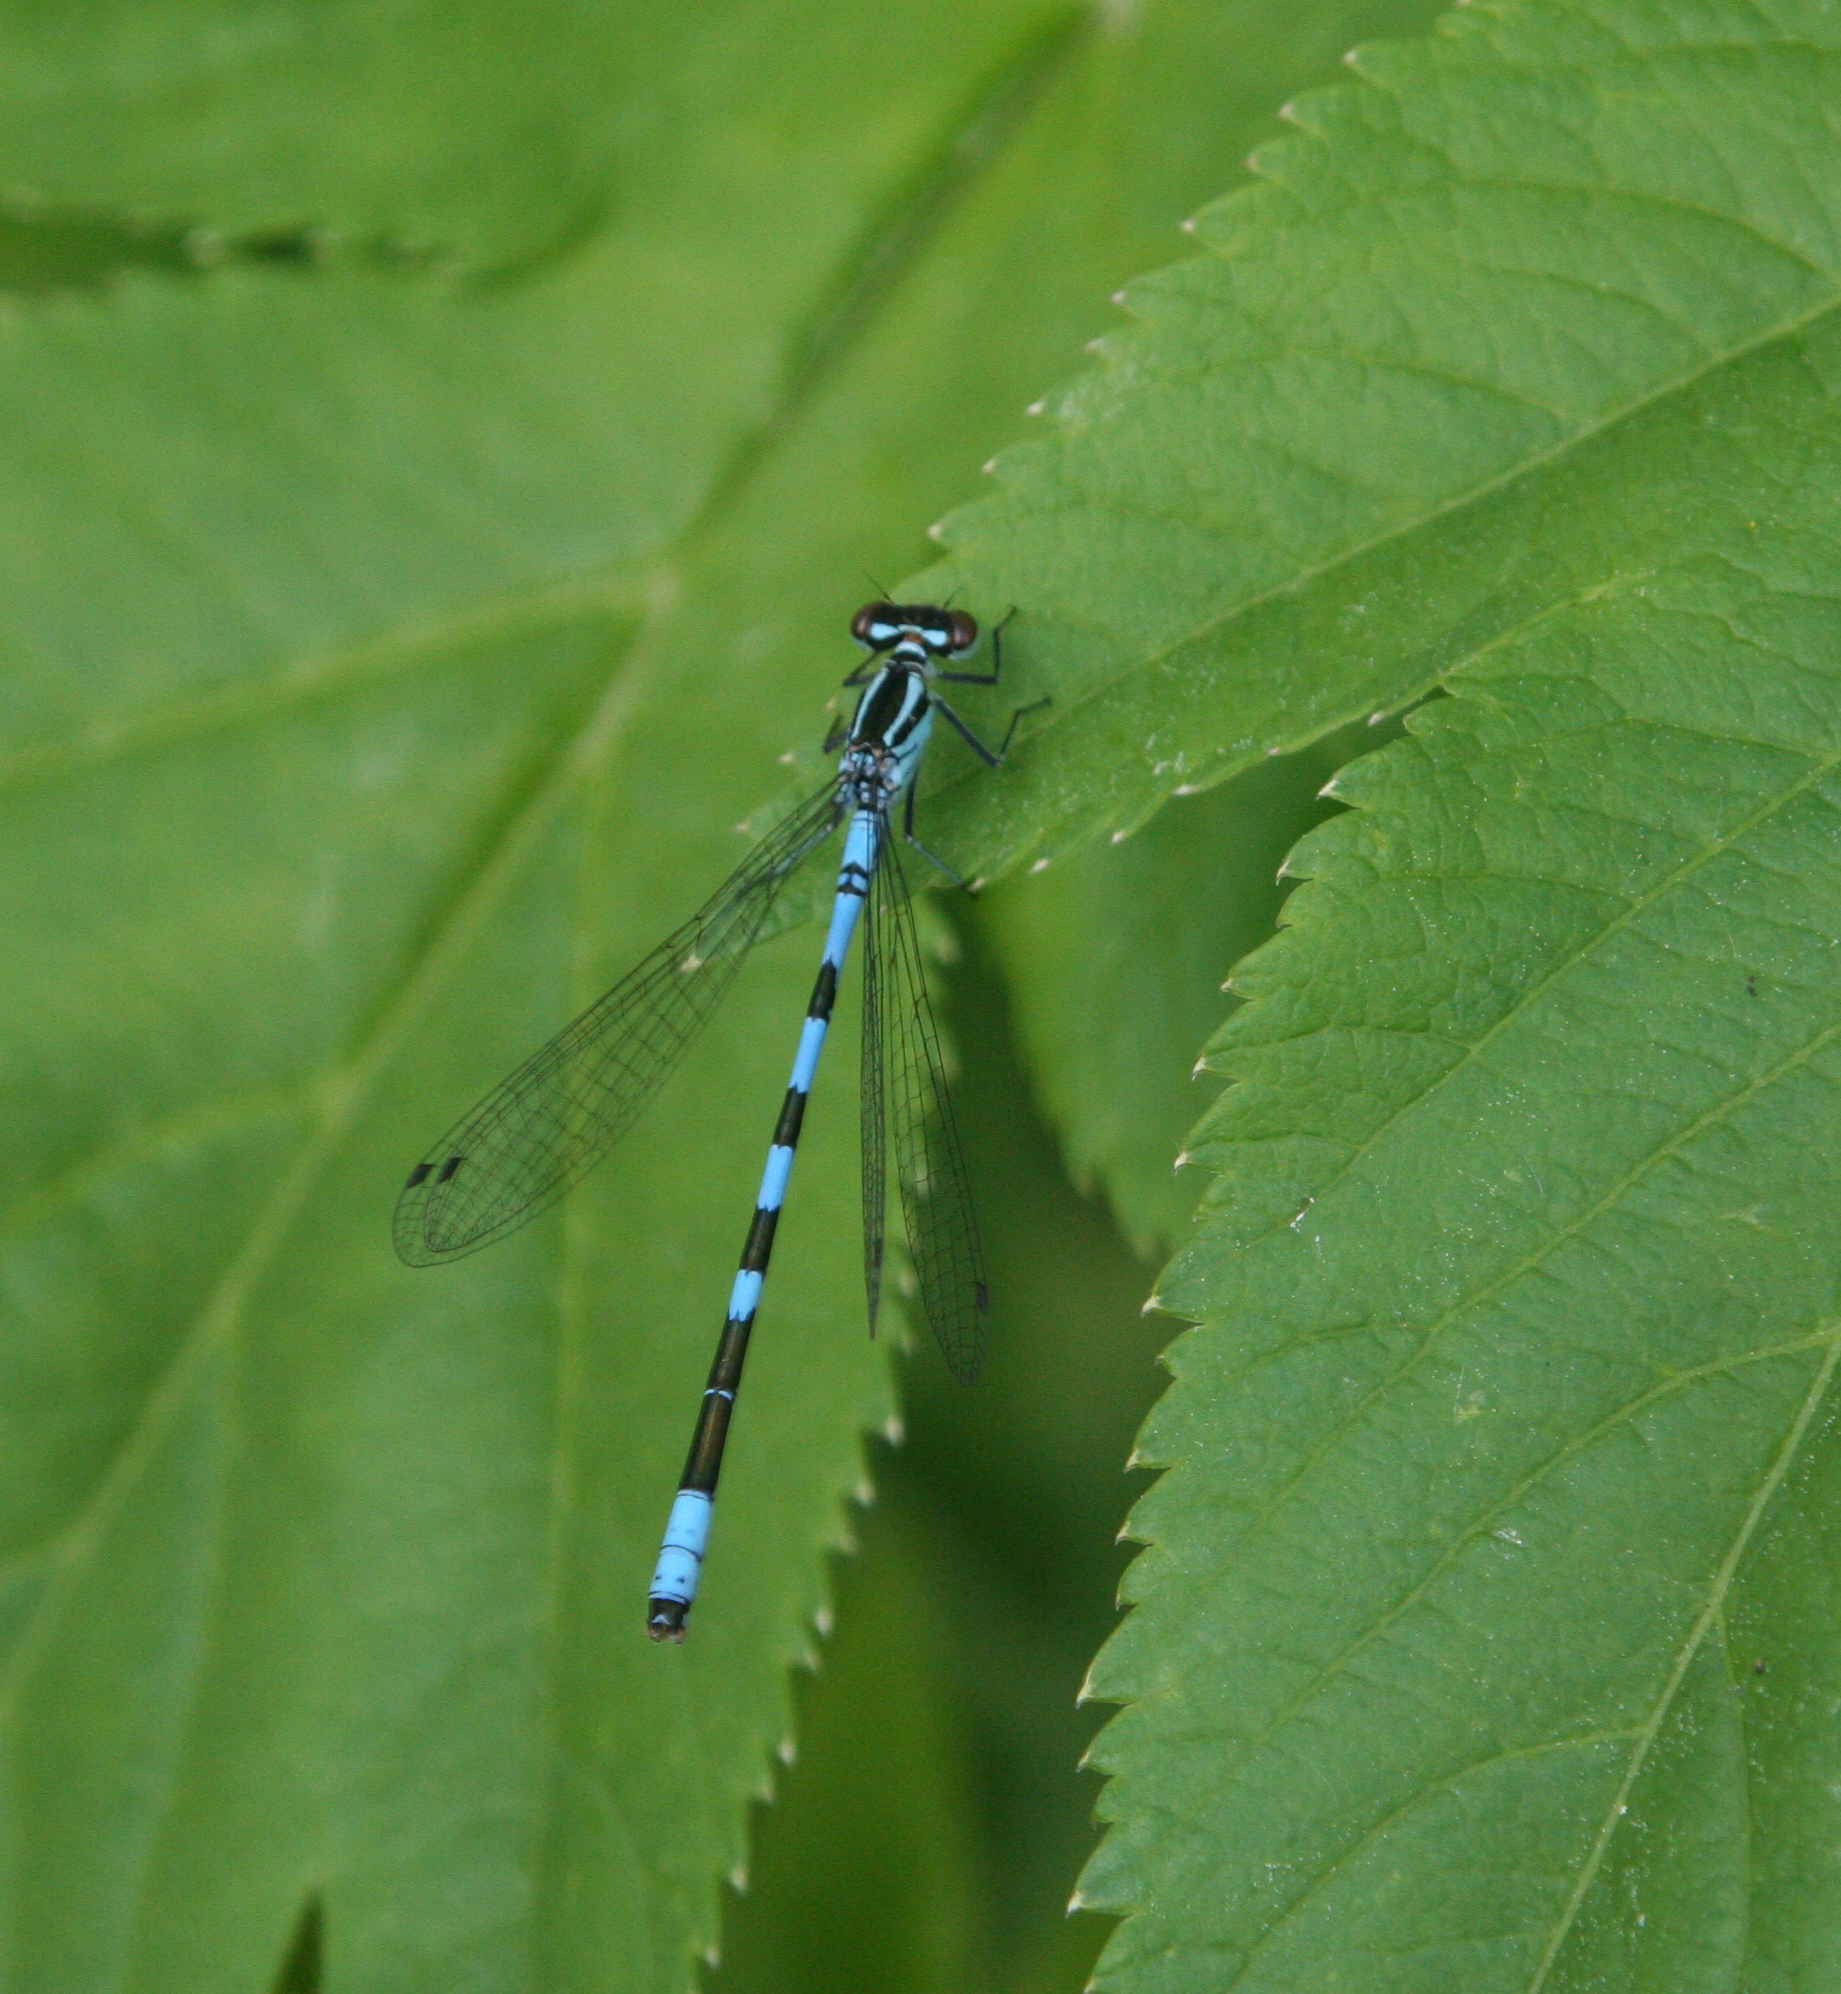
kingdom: Animalia
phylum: Arthropoda
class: Insecta
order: Odonata
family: Coenagrionidae
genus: Coenagrion
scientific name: Coenagrion hastulatum
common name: Spearhead bluet
